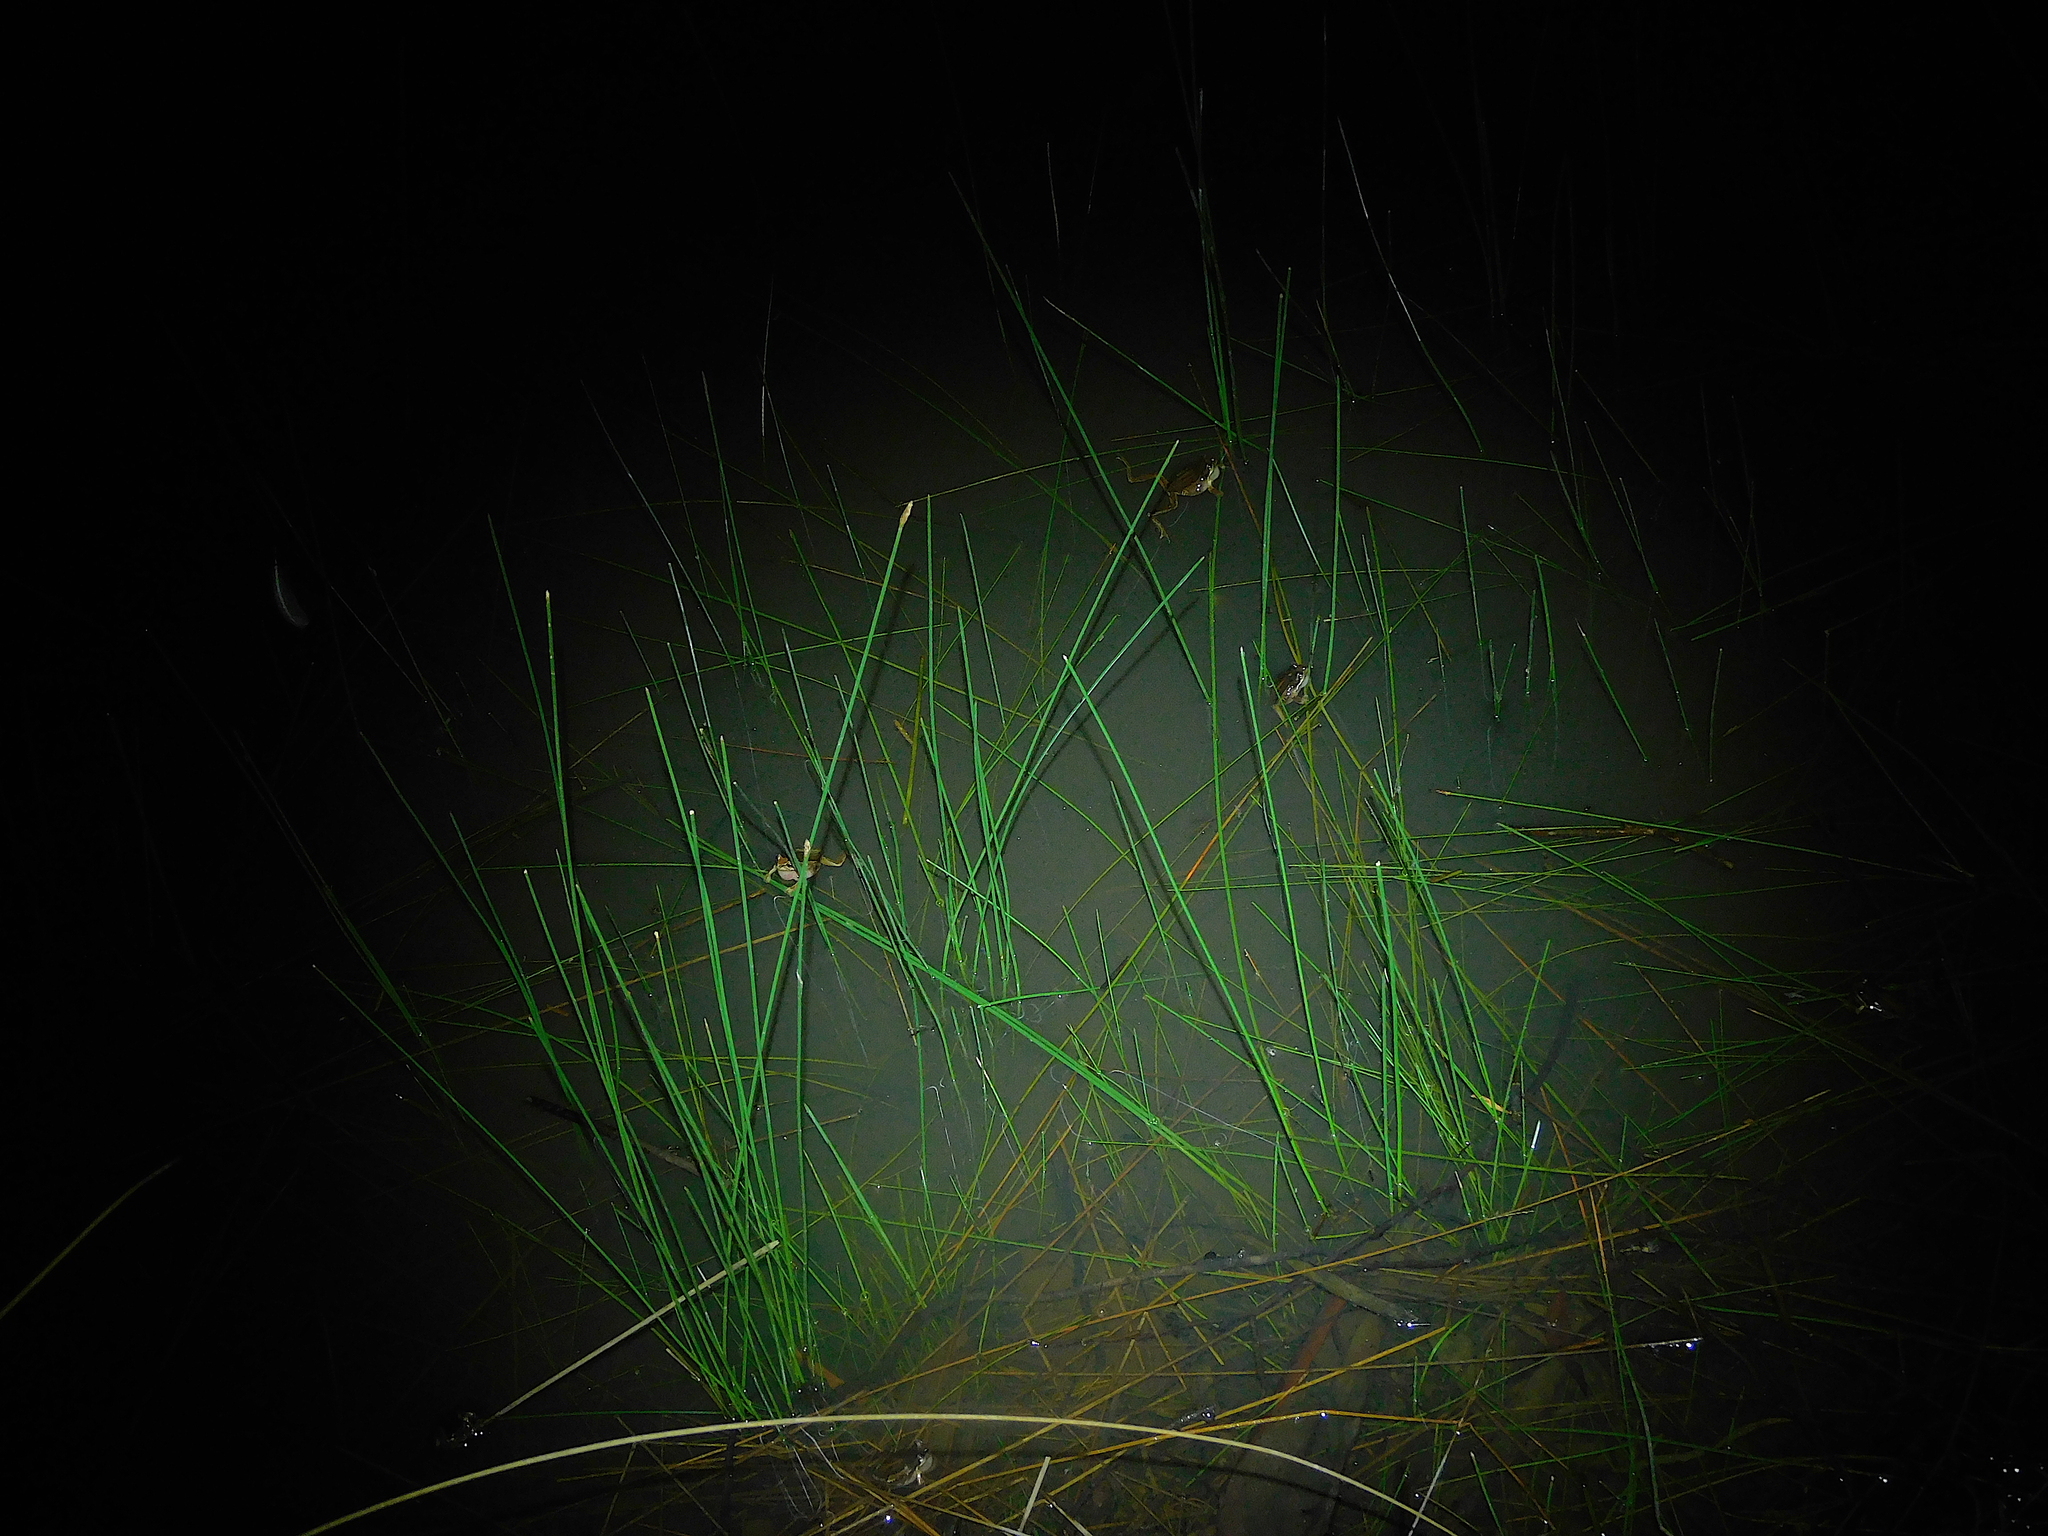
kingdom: Animalia
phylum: Chordata
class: Amphibia
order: Anura
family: Pelodryadidae
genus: Litoria
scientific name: Litoria ewingii
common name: Southern brown tree frog
